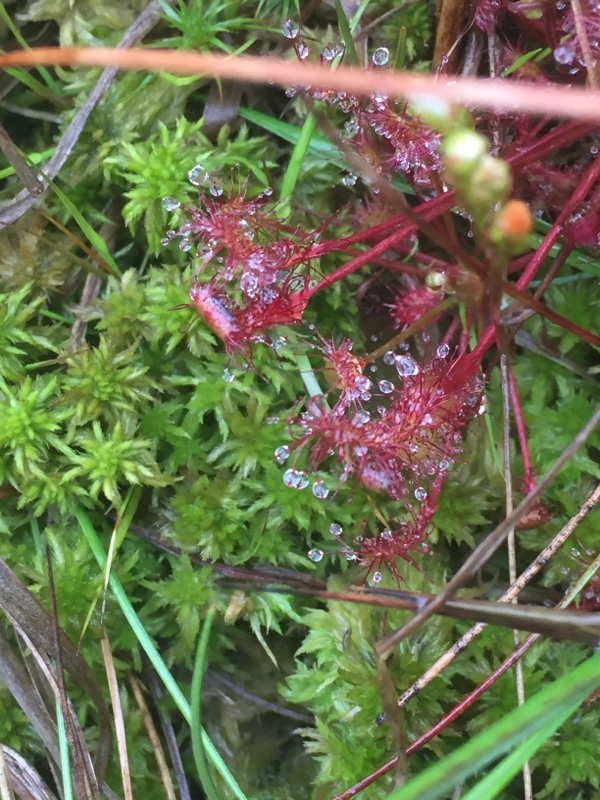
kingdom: Plantae
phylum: Tracheophyta
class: Magnoliopsida
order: Caryophyllales
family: Droseraceae
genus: Drosera
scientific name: Drosera intermedia
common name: Oblong-leaved sundew
